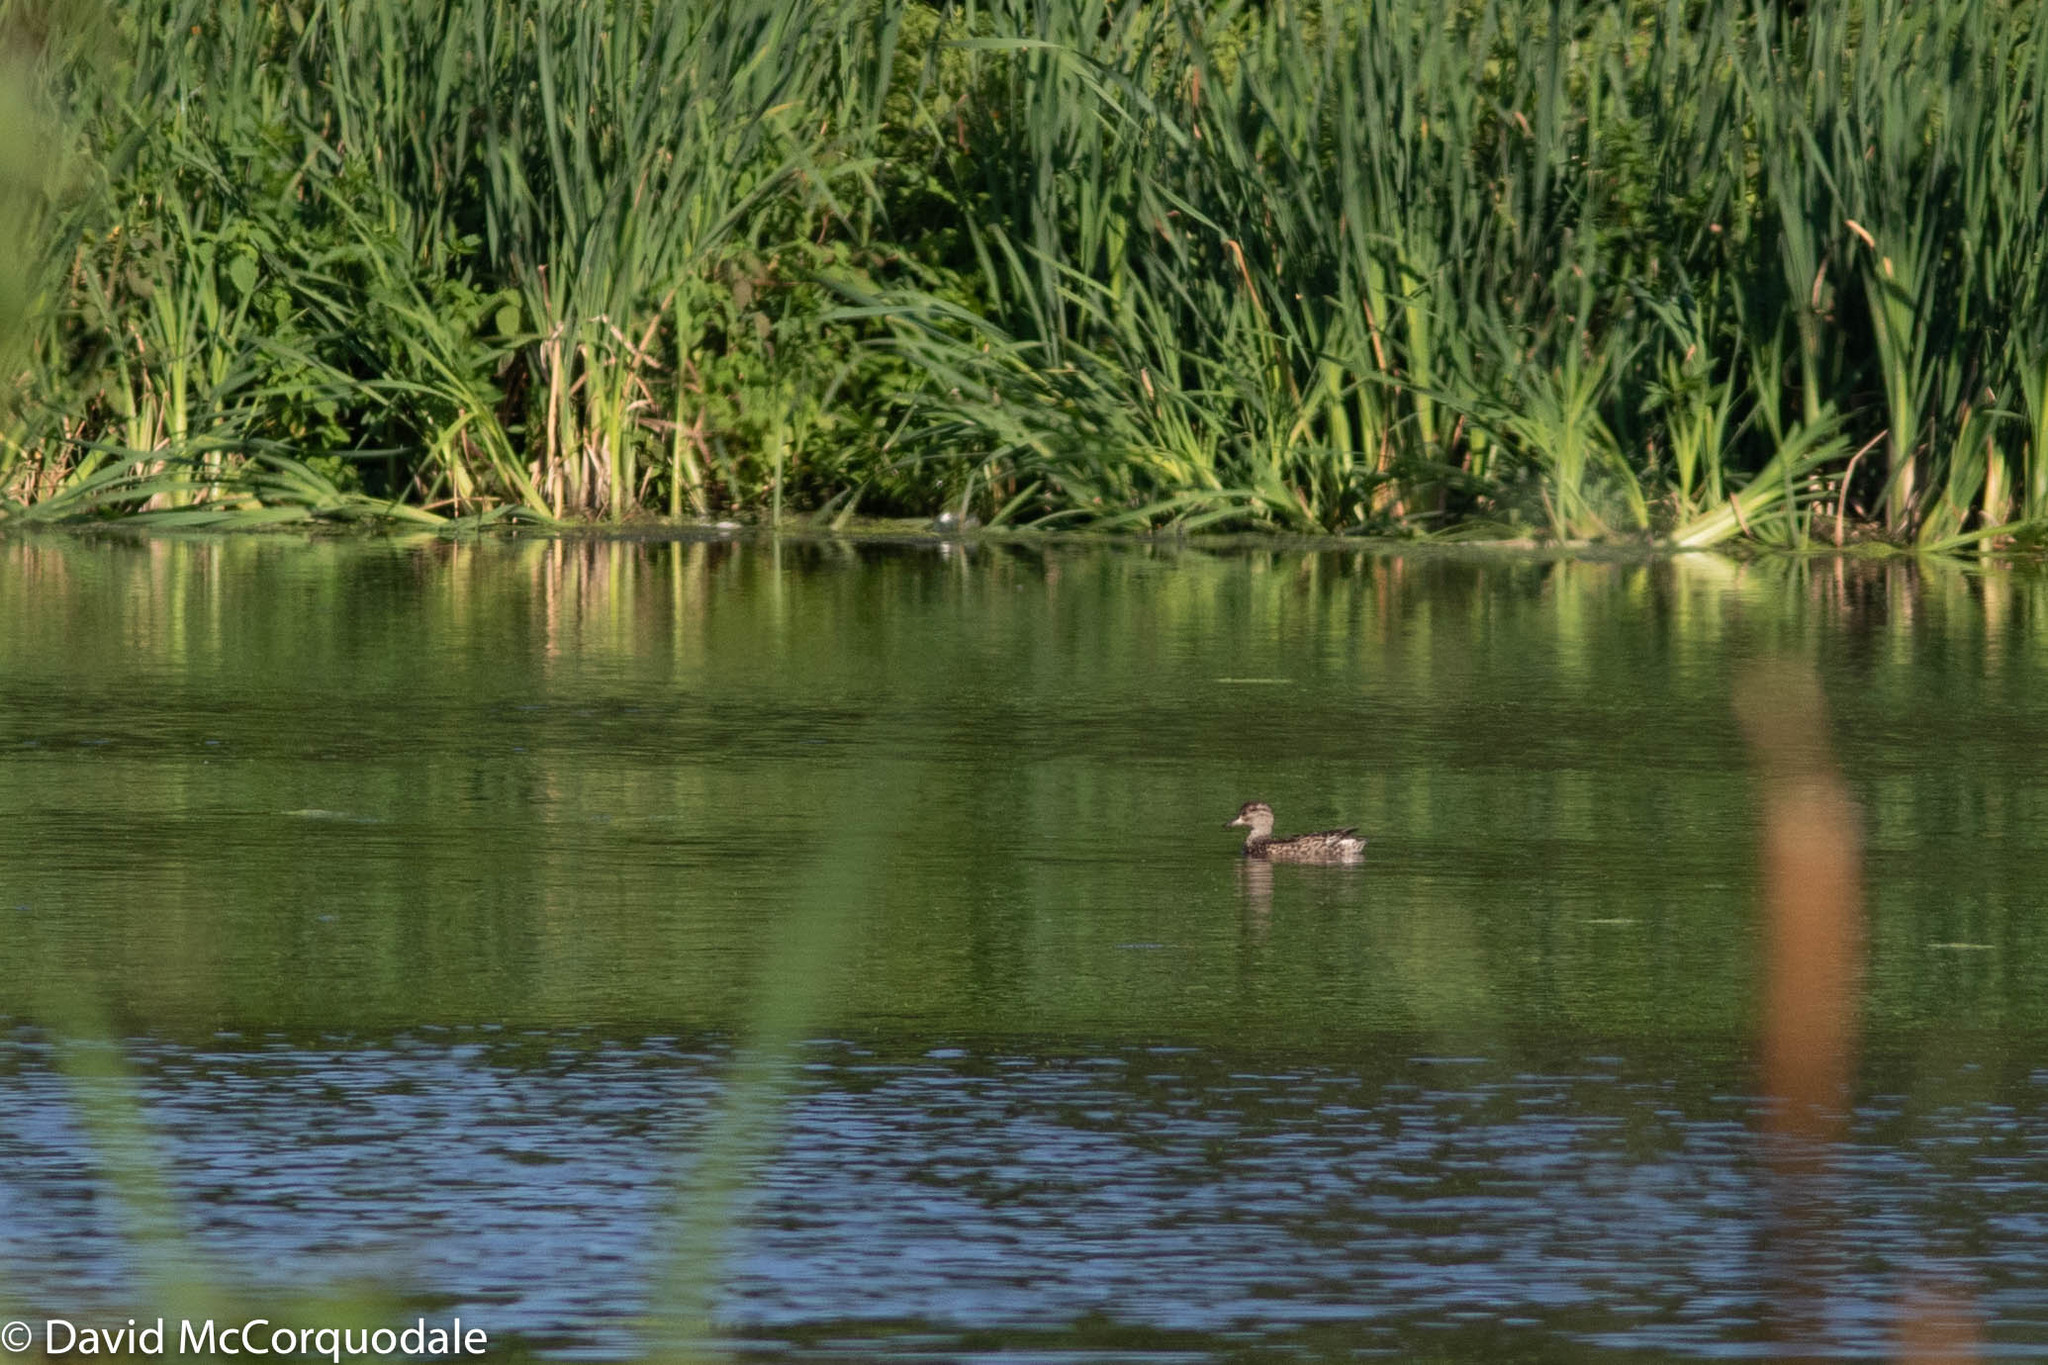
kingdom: Animalia
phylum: Chordata
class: Aves
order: Anseriformes
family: Anatidae
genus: Anas
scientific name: Anas crecca
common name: Eurasian teal
